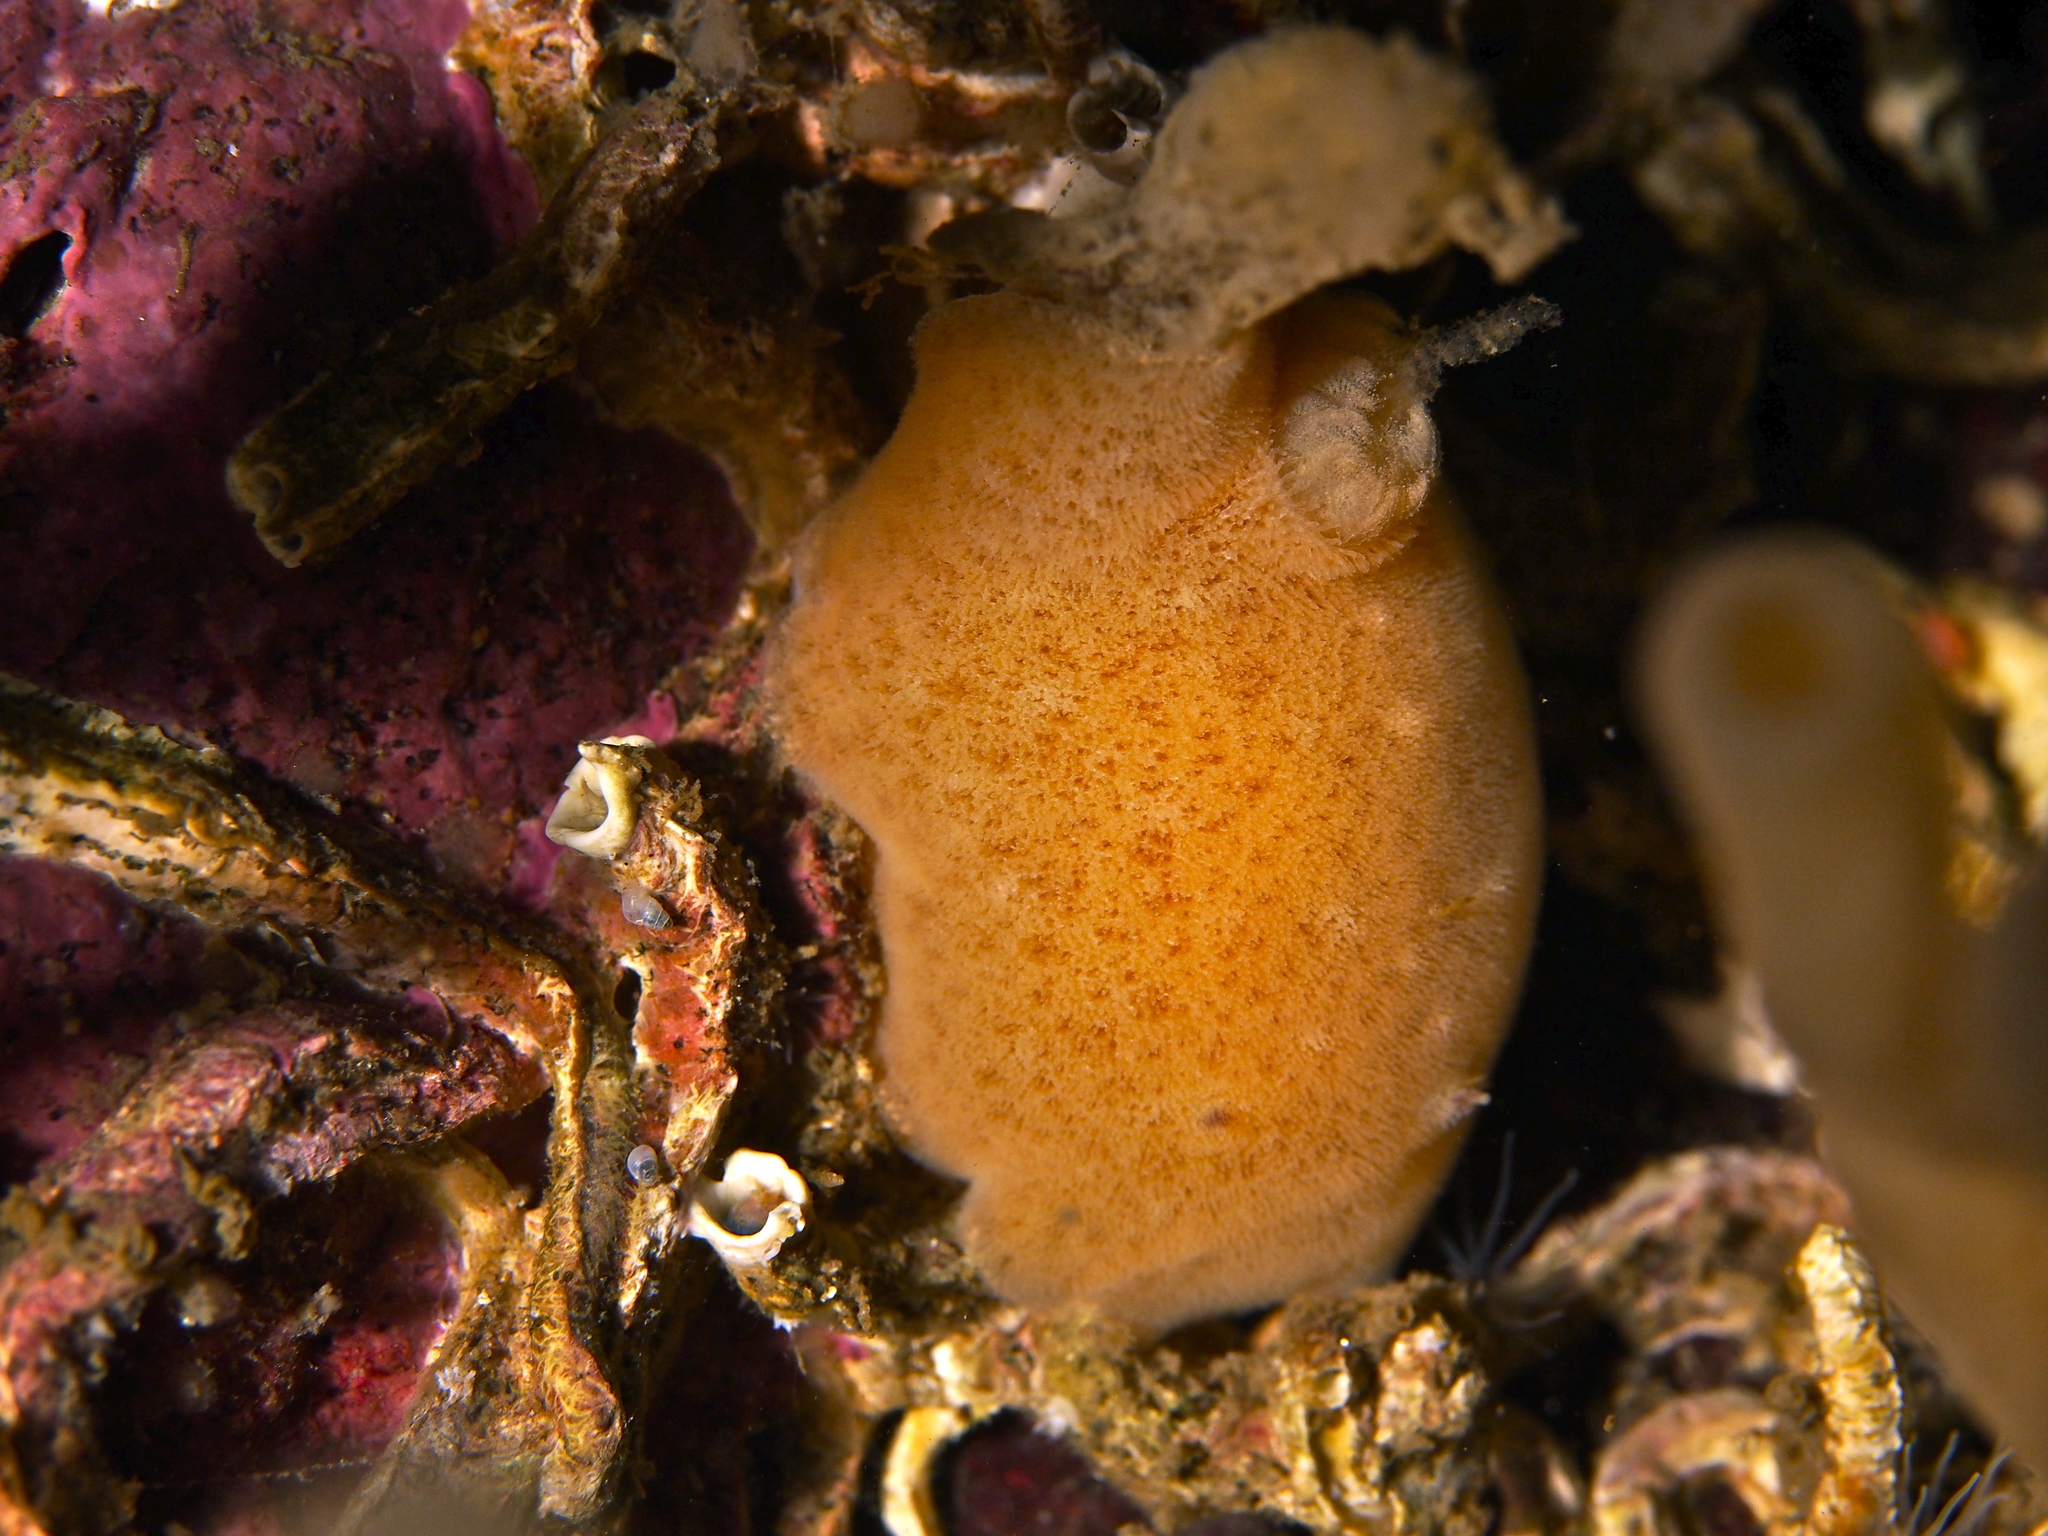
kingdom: Animalia
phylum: Mollusca
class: Gastropoda
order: Nudibranchia
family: Discodorididae
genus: Jorunna
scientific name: Jorunna tomentosa
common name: Grey sea slug
